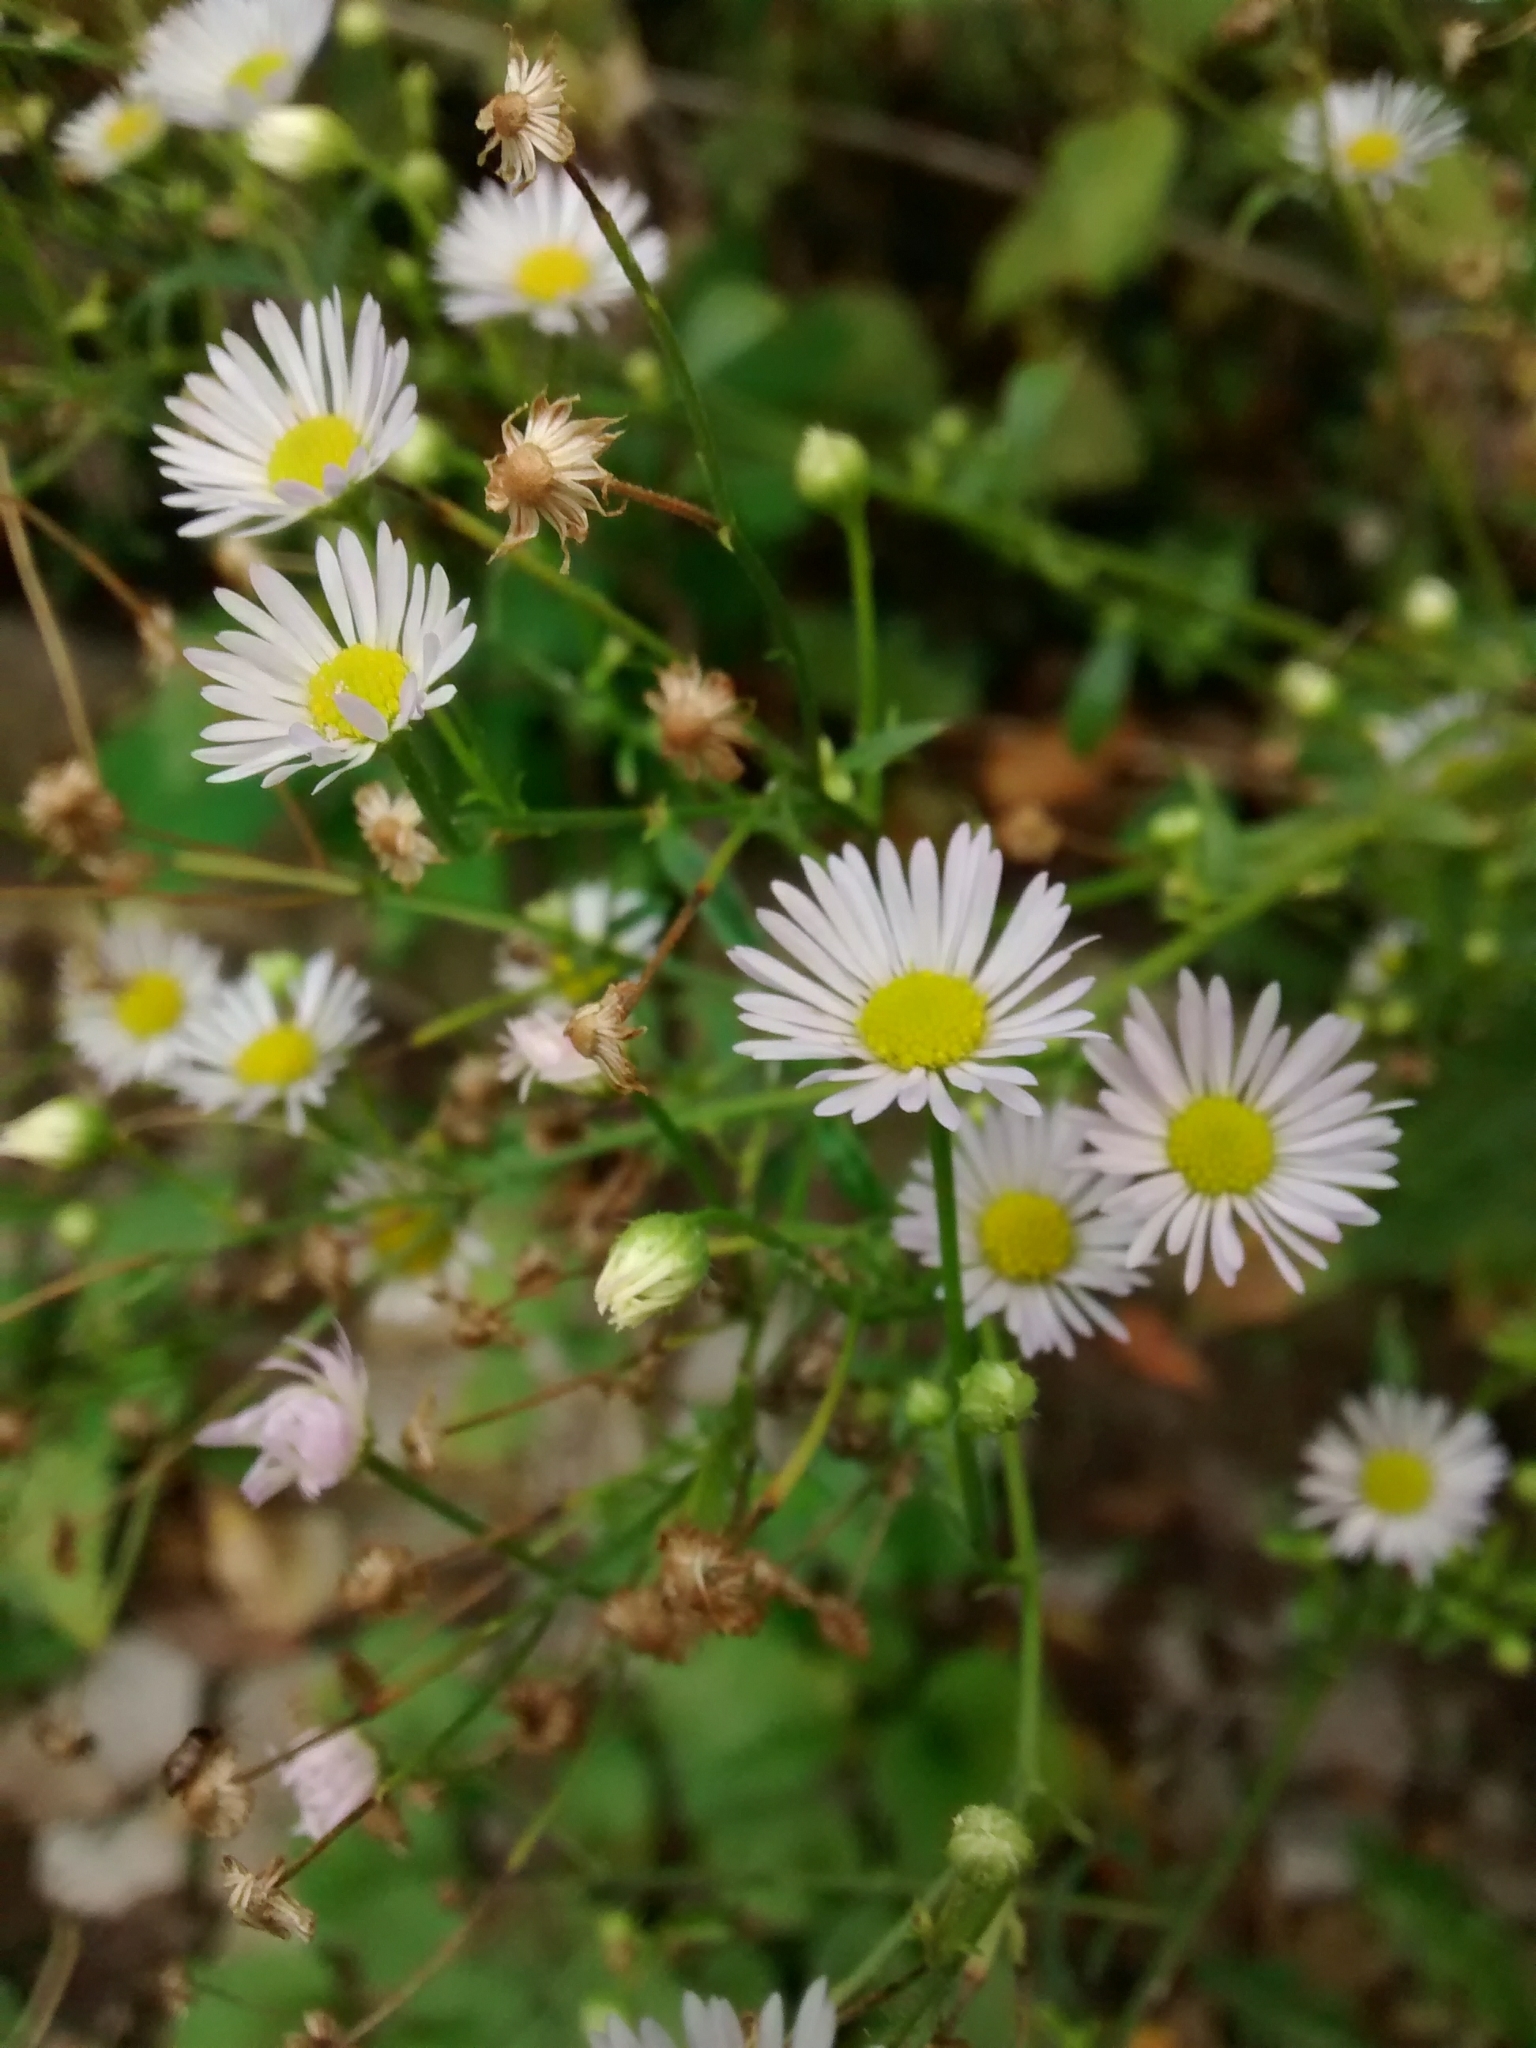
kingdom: Plantae
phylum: Tracheophyta
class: Magnoliopsida
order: Asterales
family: Asteraceae
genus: Erigeron
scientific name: Erigeron annuus
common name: Tall fleabane
